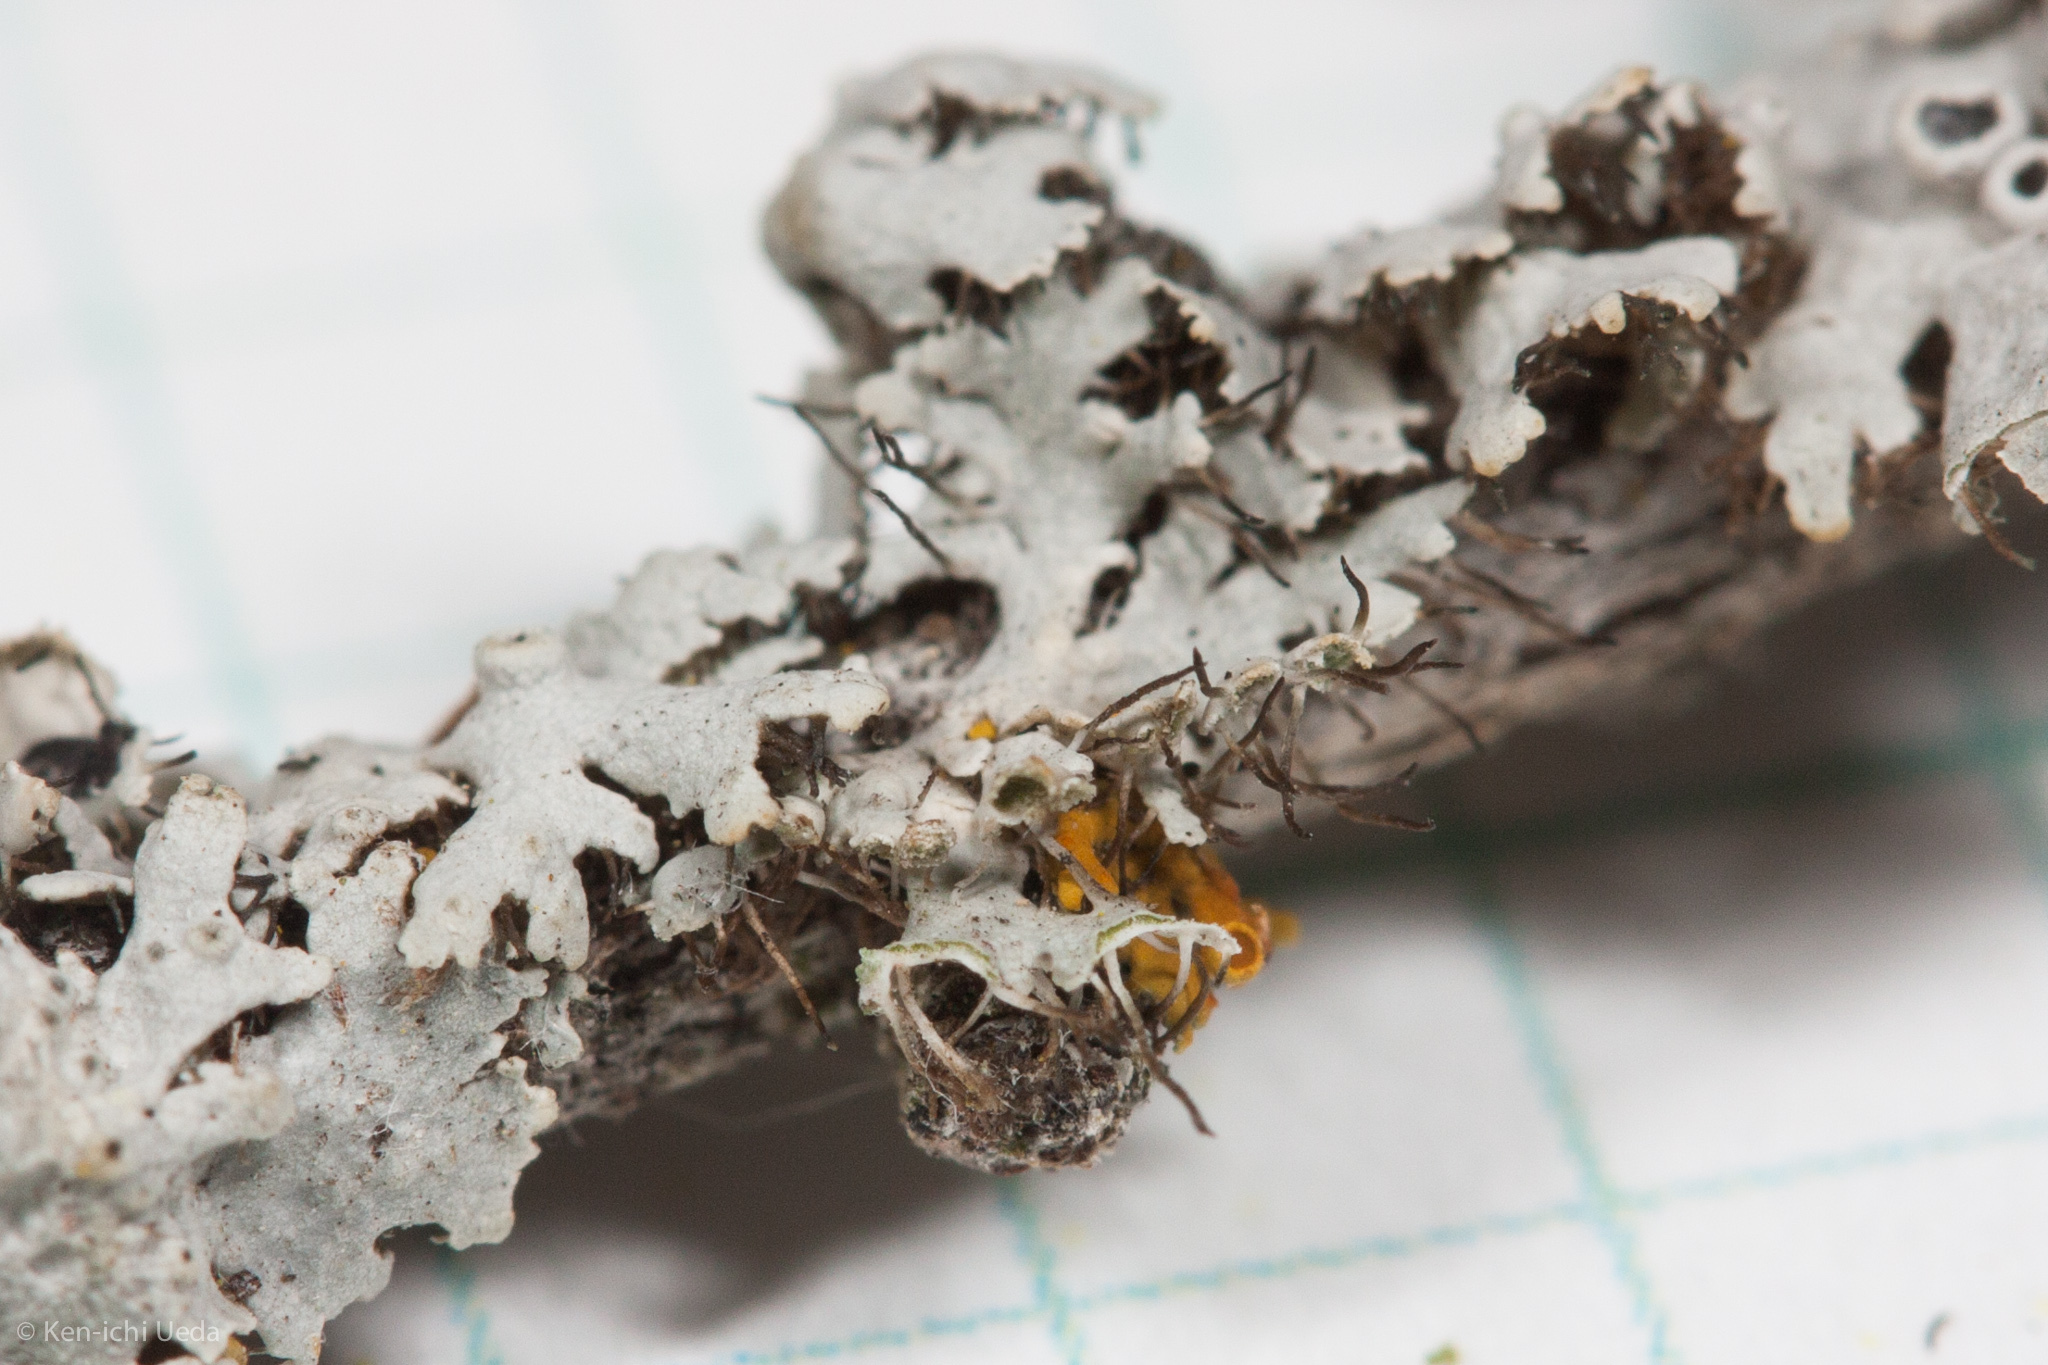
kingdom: Fungi
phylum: Ascomycota
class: Lecanoromycetes
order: Caliciales
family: Physciaceae
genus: Physcia
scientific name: Physcia stellaris
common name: Star rosette lichen
